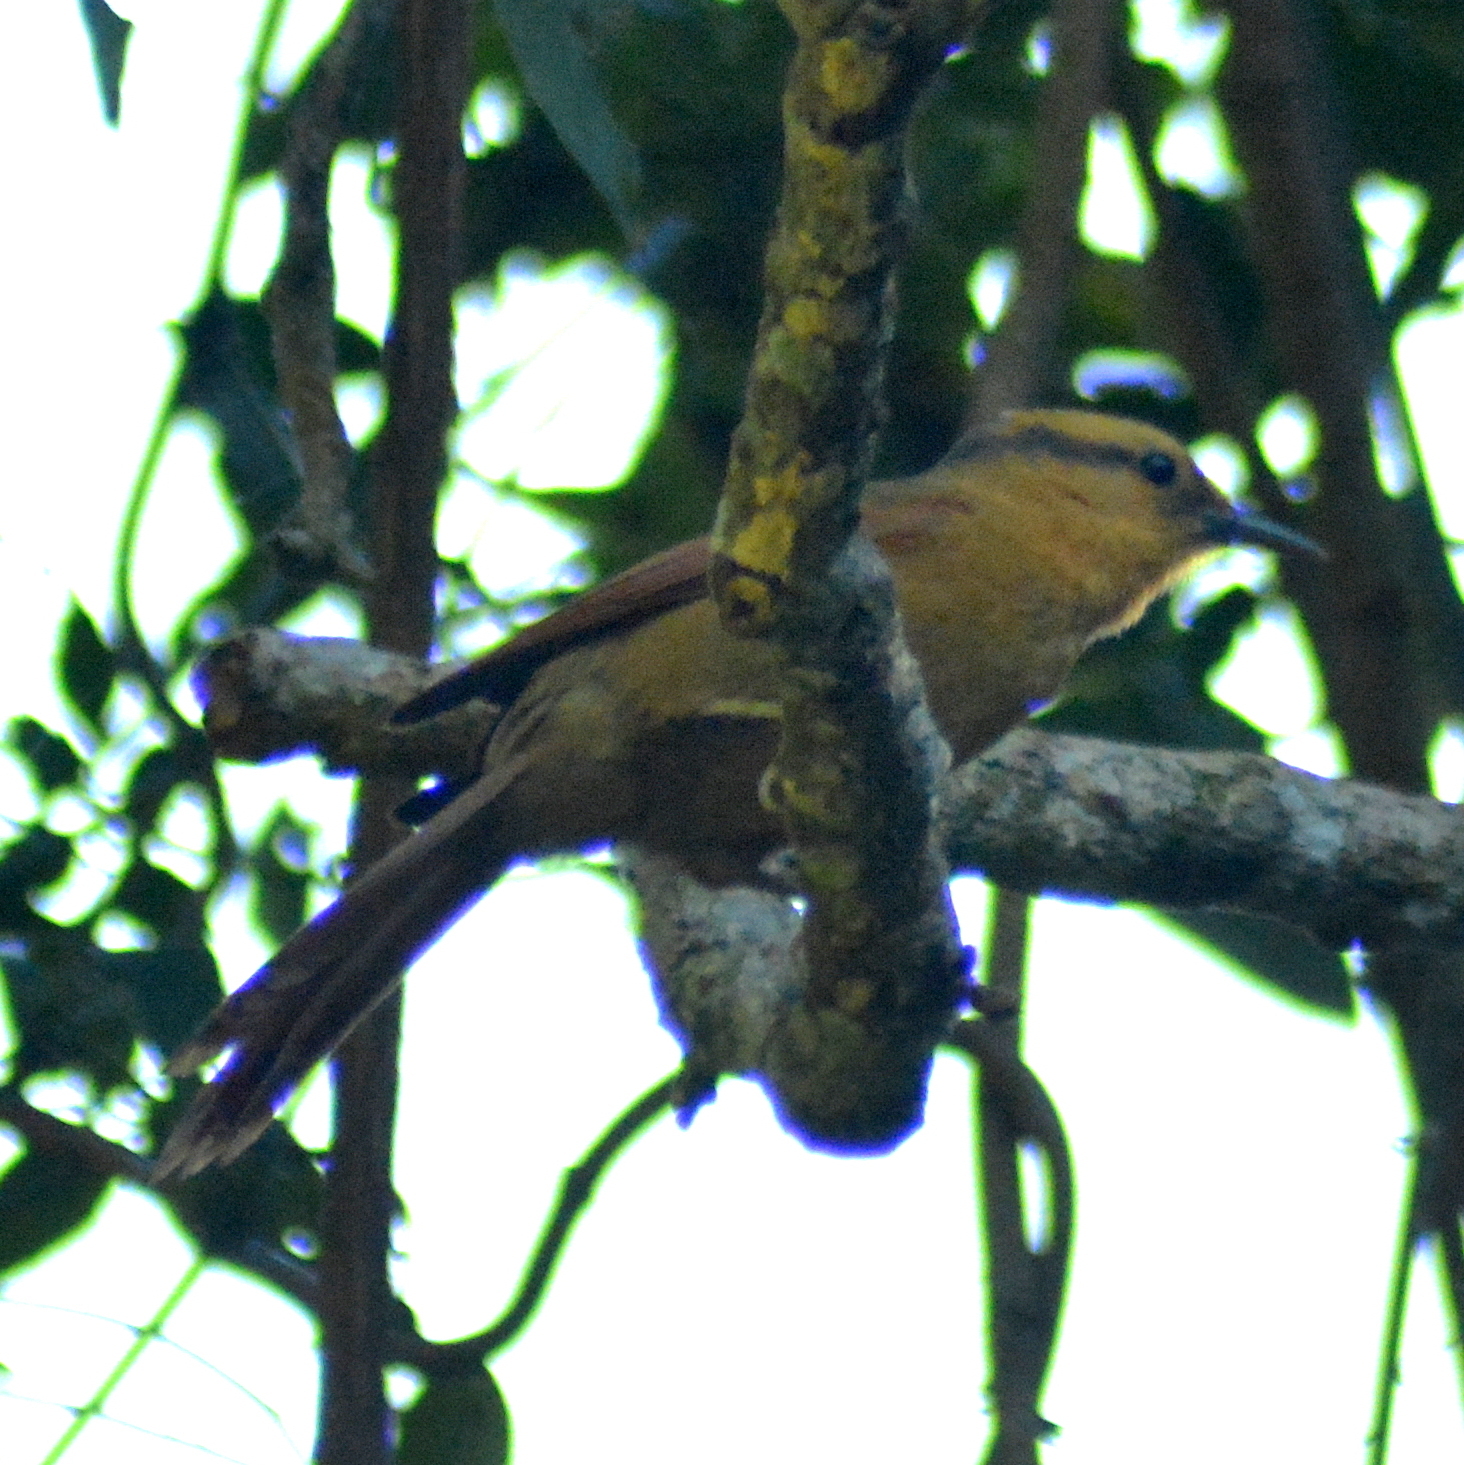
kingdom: Animalia
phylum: Chordata
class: Aves
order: Passeriformes
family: Furnariidae
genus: Philydor
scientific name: Philydor rufum
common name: Buff-fronted foliage-gleaner
